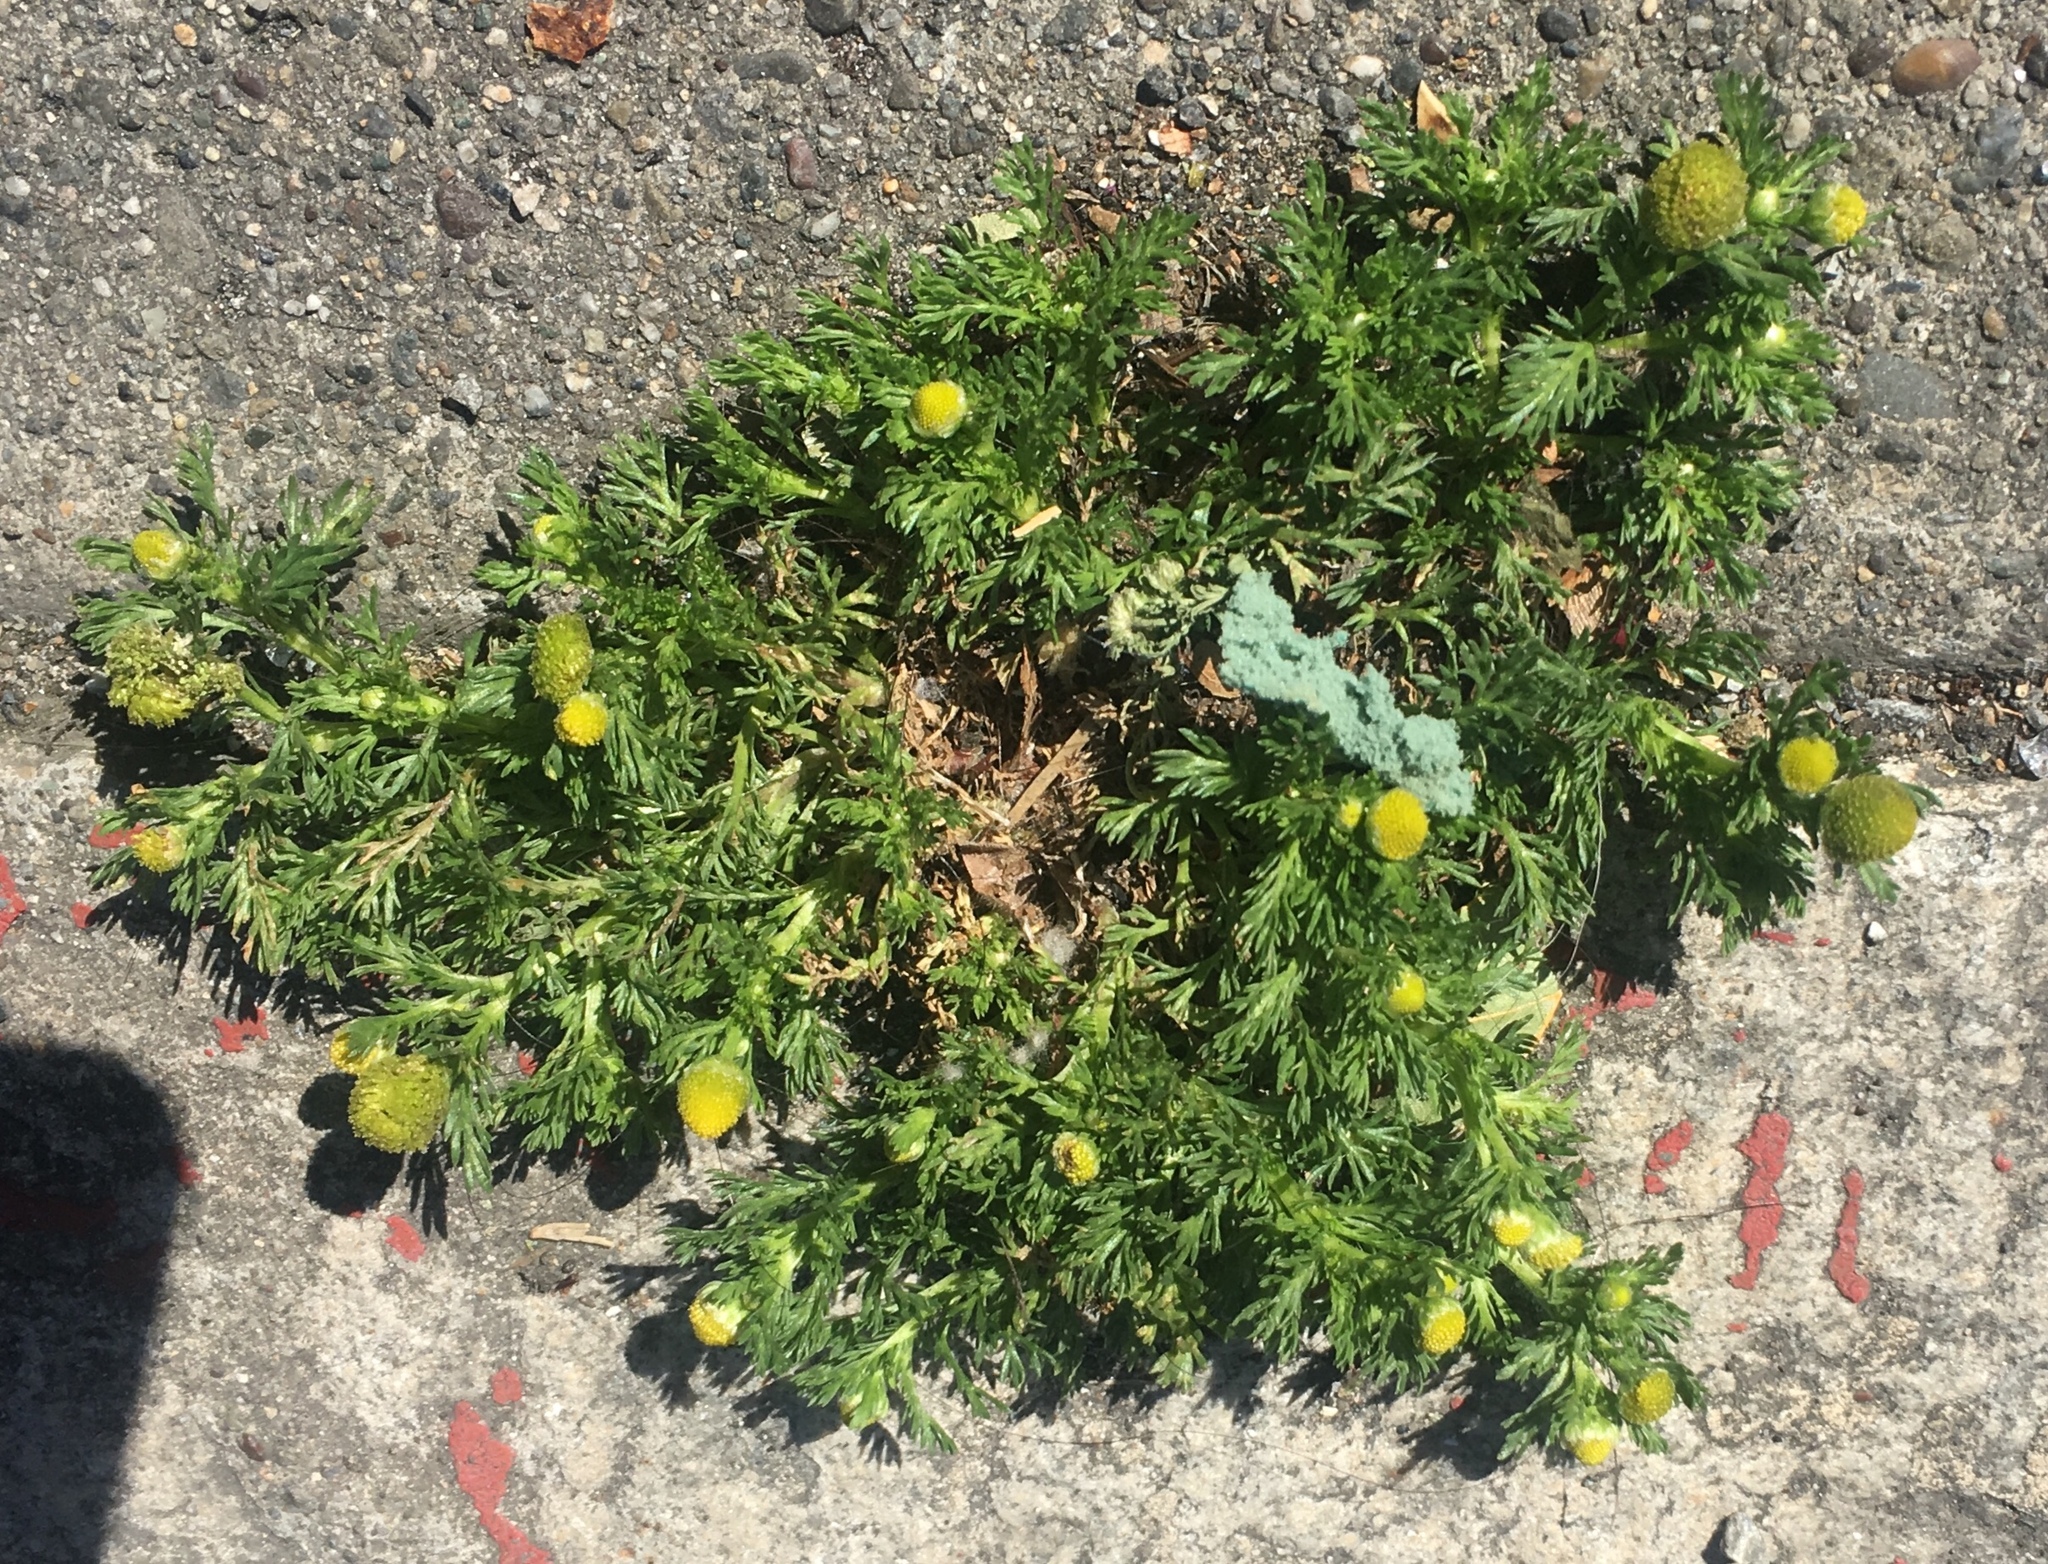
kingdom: Plantae
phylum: Tracheophyta
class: Magnoliopsida
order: Asterales
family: Asteraceae
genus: Matricaria
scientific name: Matricaria discoidea
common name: Disc mayweed
